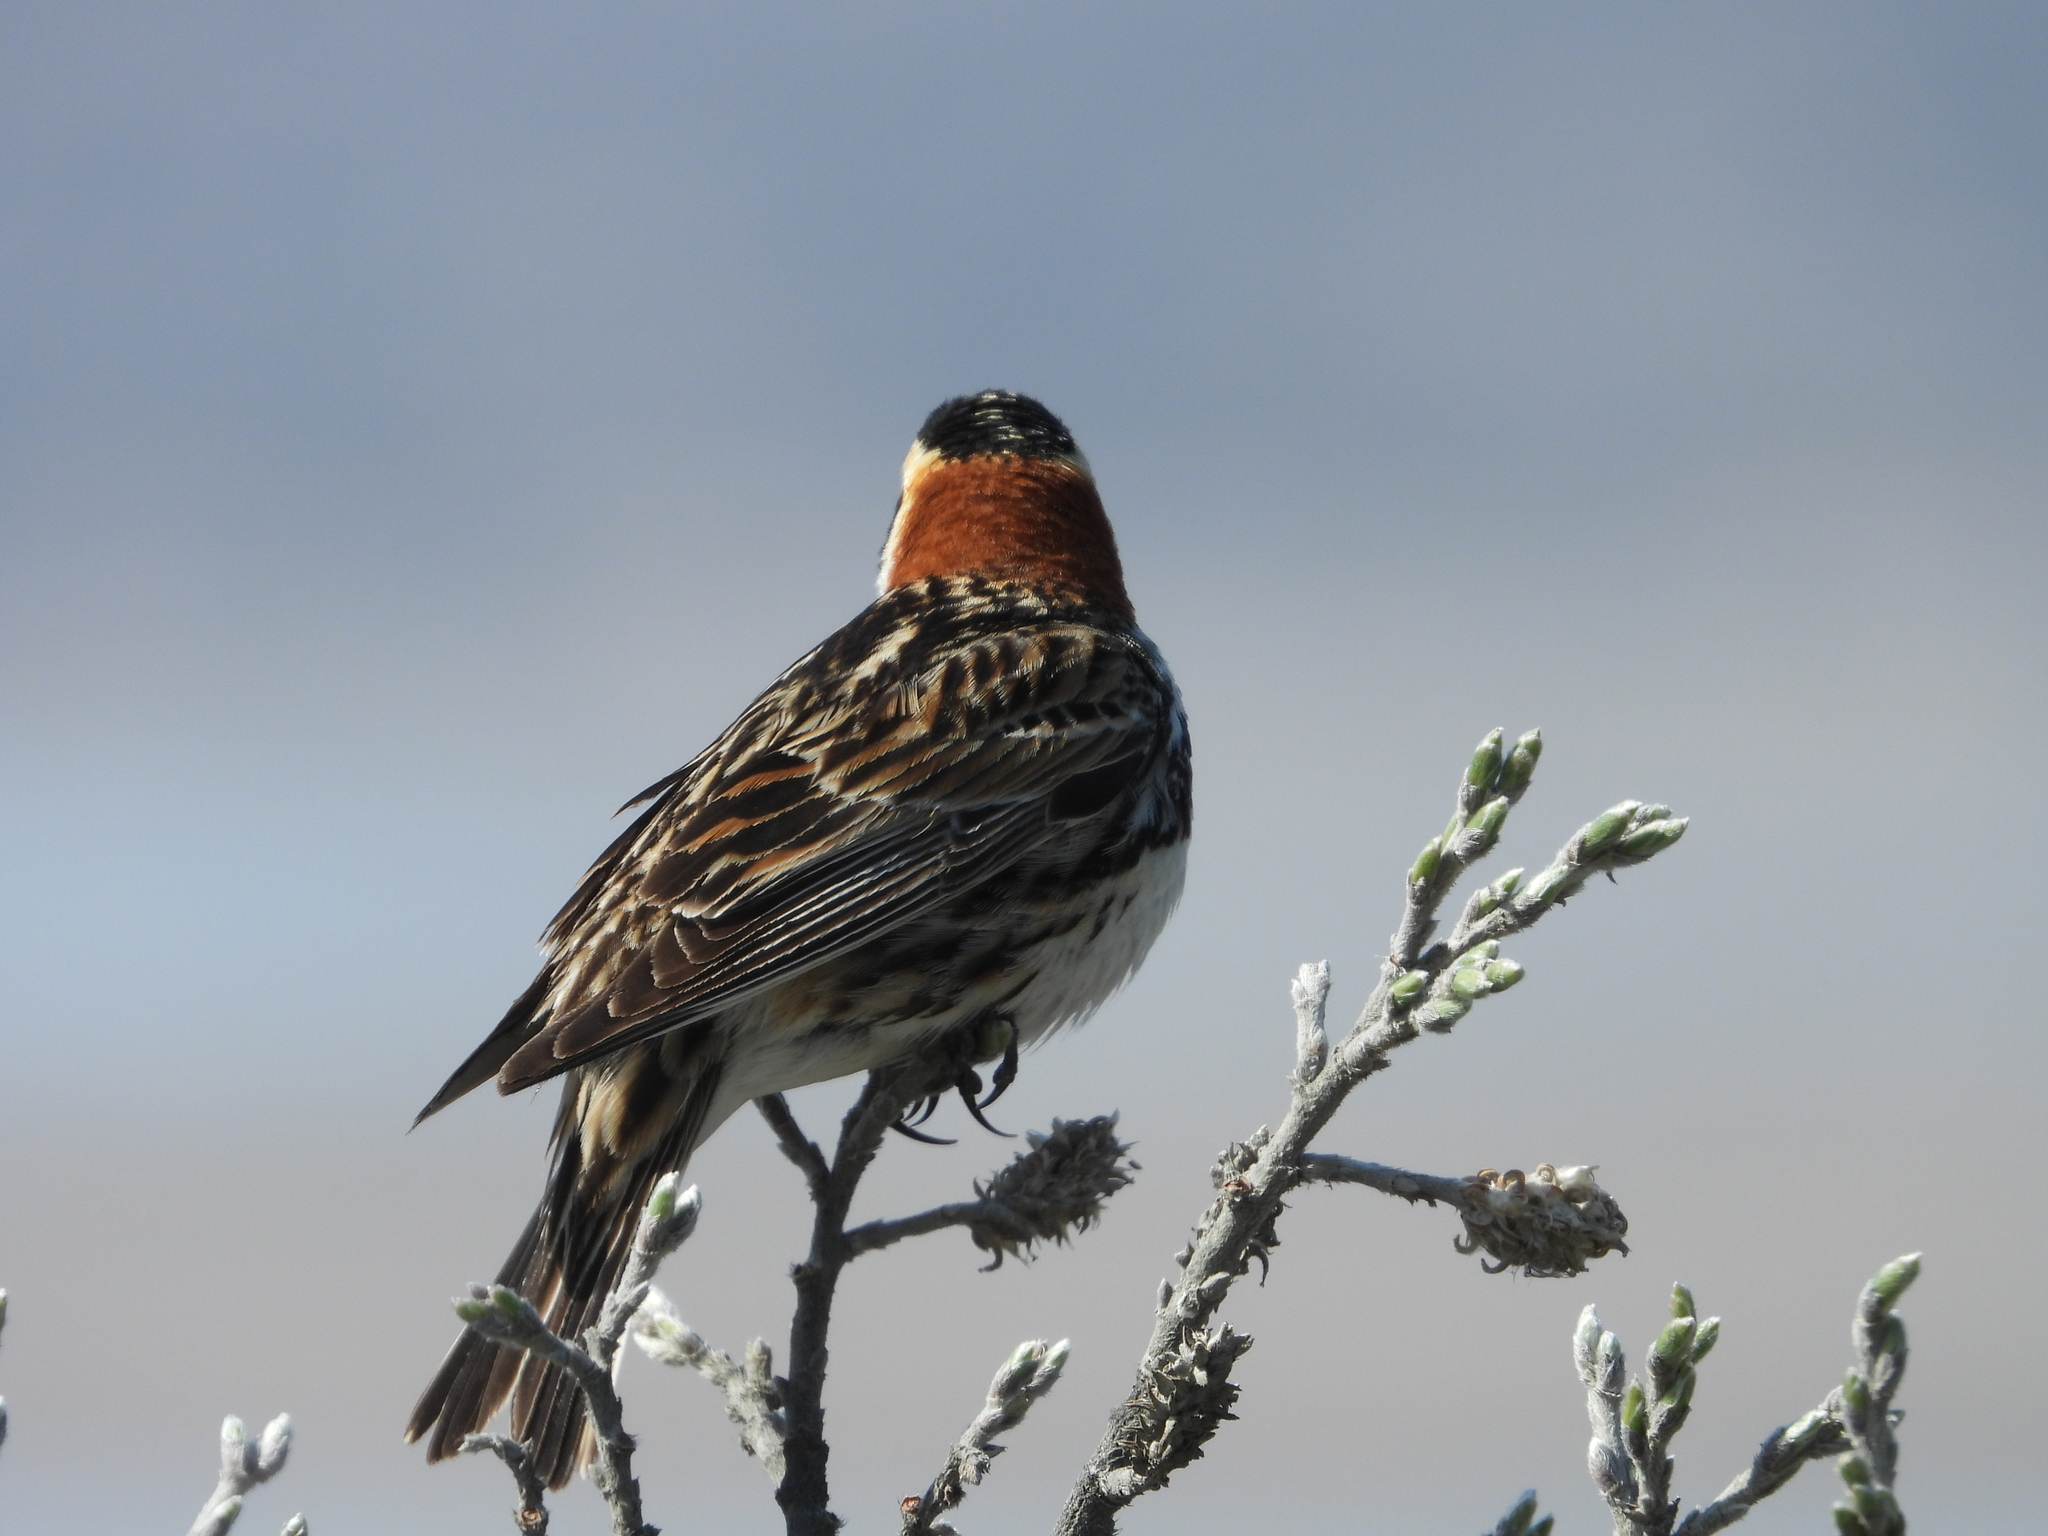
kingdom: Animalia
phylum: Chordata
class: Aves
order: Passeriformes
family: Calcariidae
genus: Calcarius
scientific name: Calcarius lapponicus
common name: Lapland longspur
